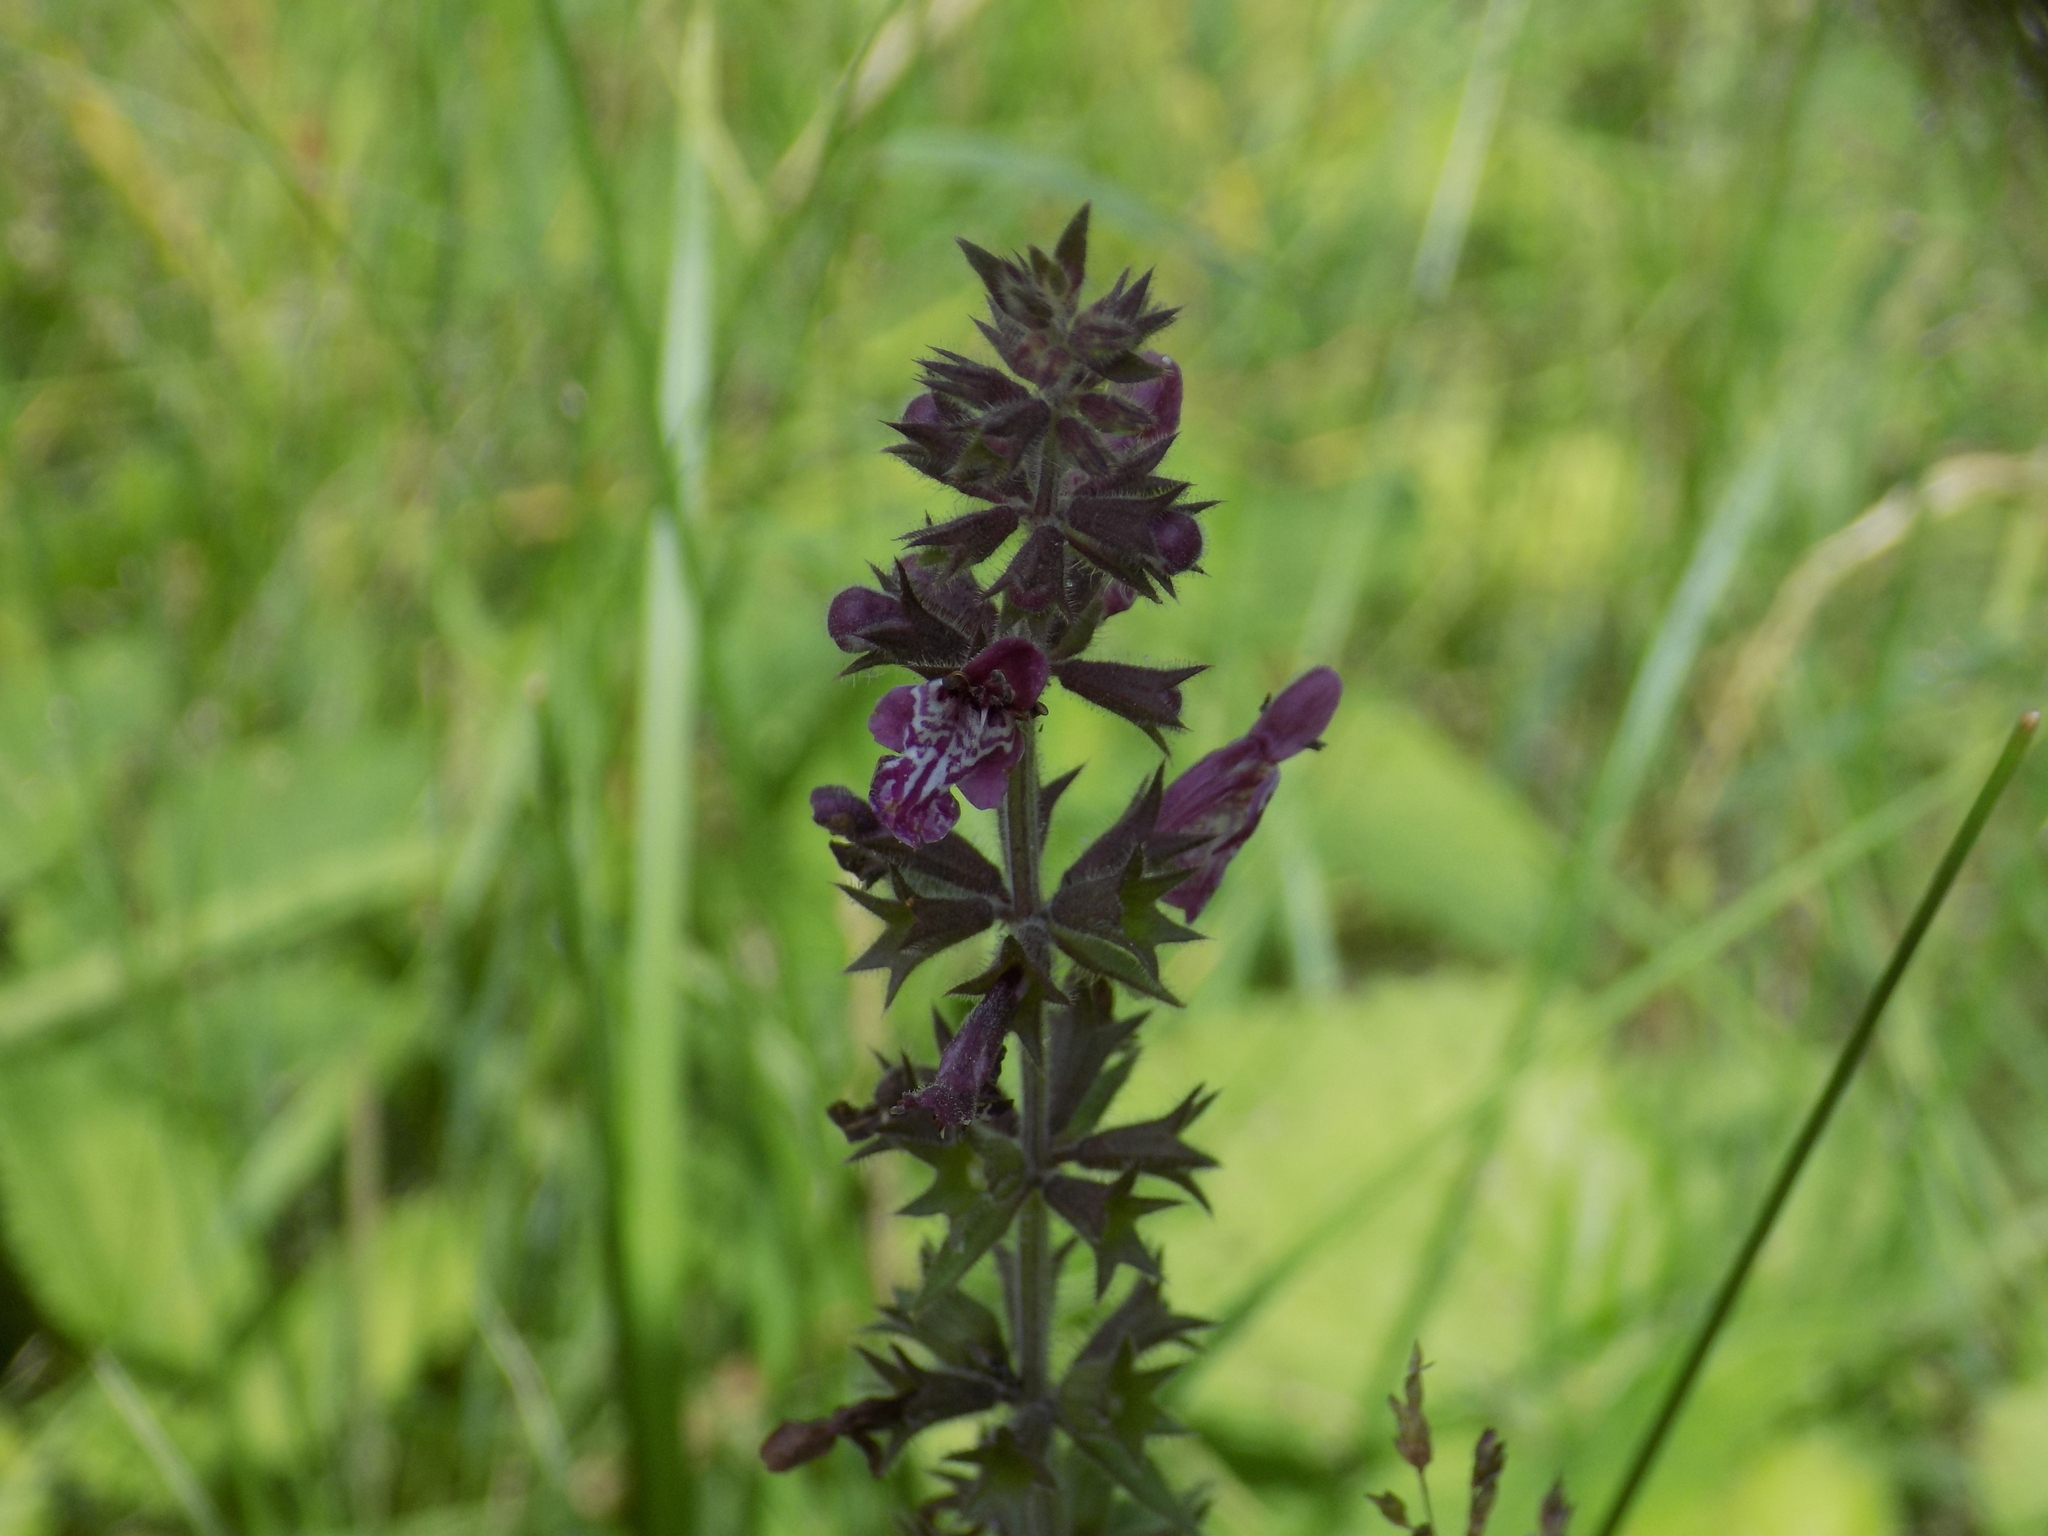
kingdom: Plantae
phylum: Tracheophyta
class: Magnoliopsida
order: Lamiales
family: Lamiaceae
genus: Stachys
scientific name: Stachys sylvatica
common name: Hedge woundwort
